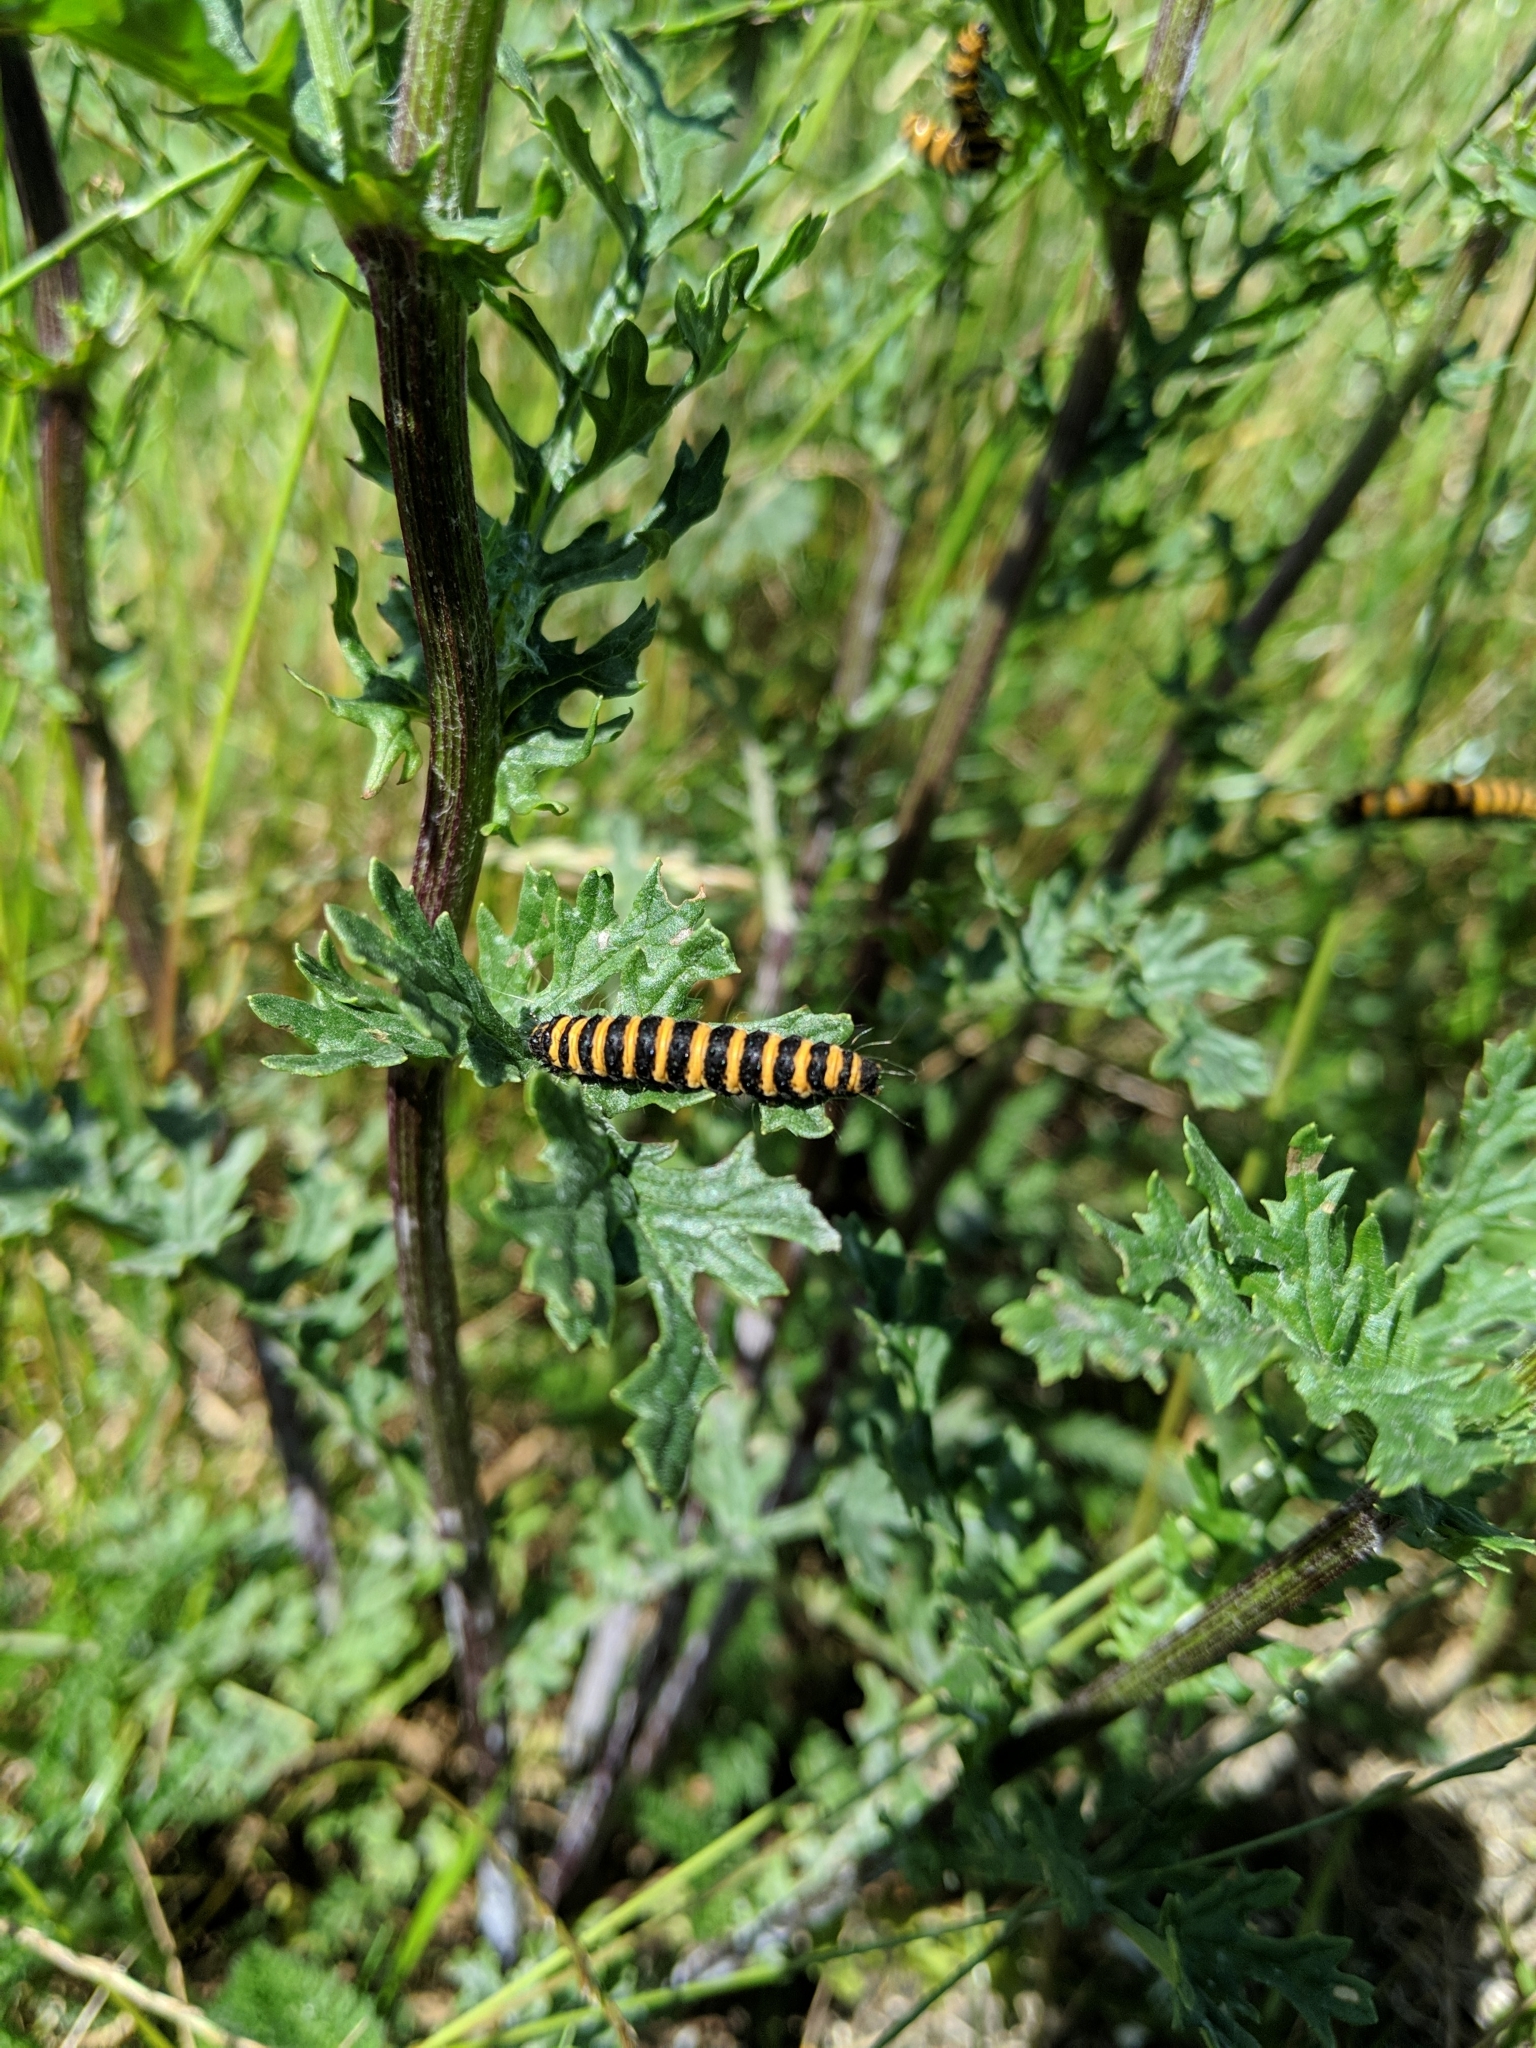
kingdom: Animalia
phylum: Arthropoda
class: Insecta
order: Lepidoptera
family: Erebidae
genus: Tyria
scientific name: Tyria jacobaeae
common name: Cinnabar
